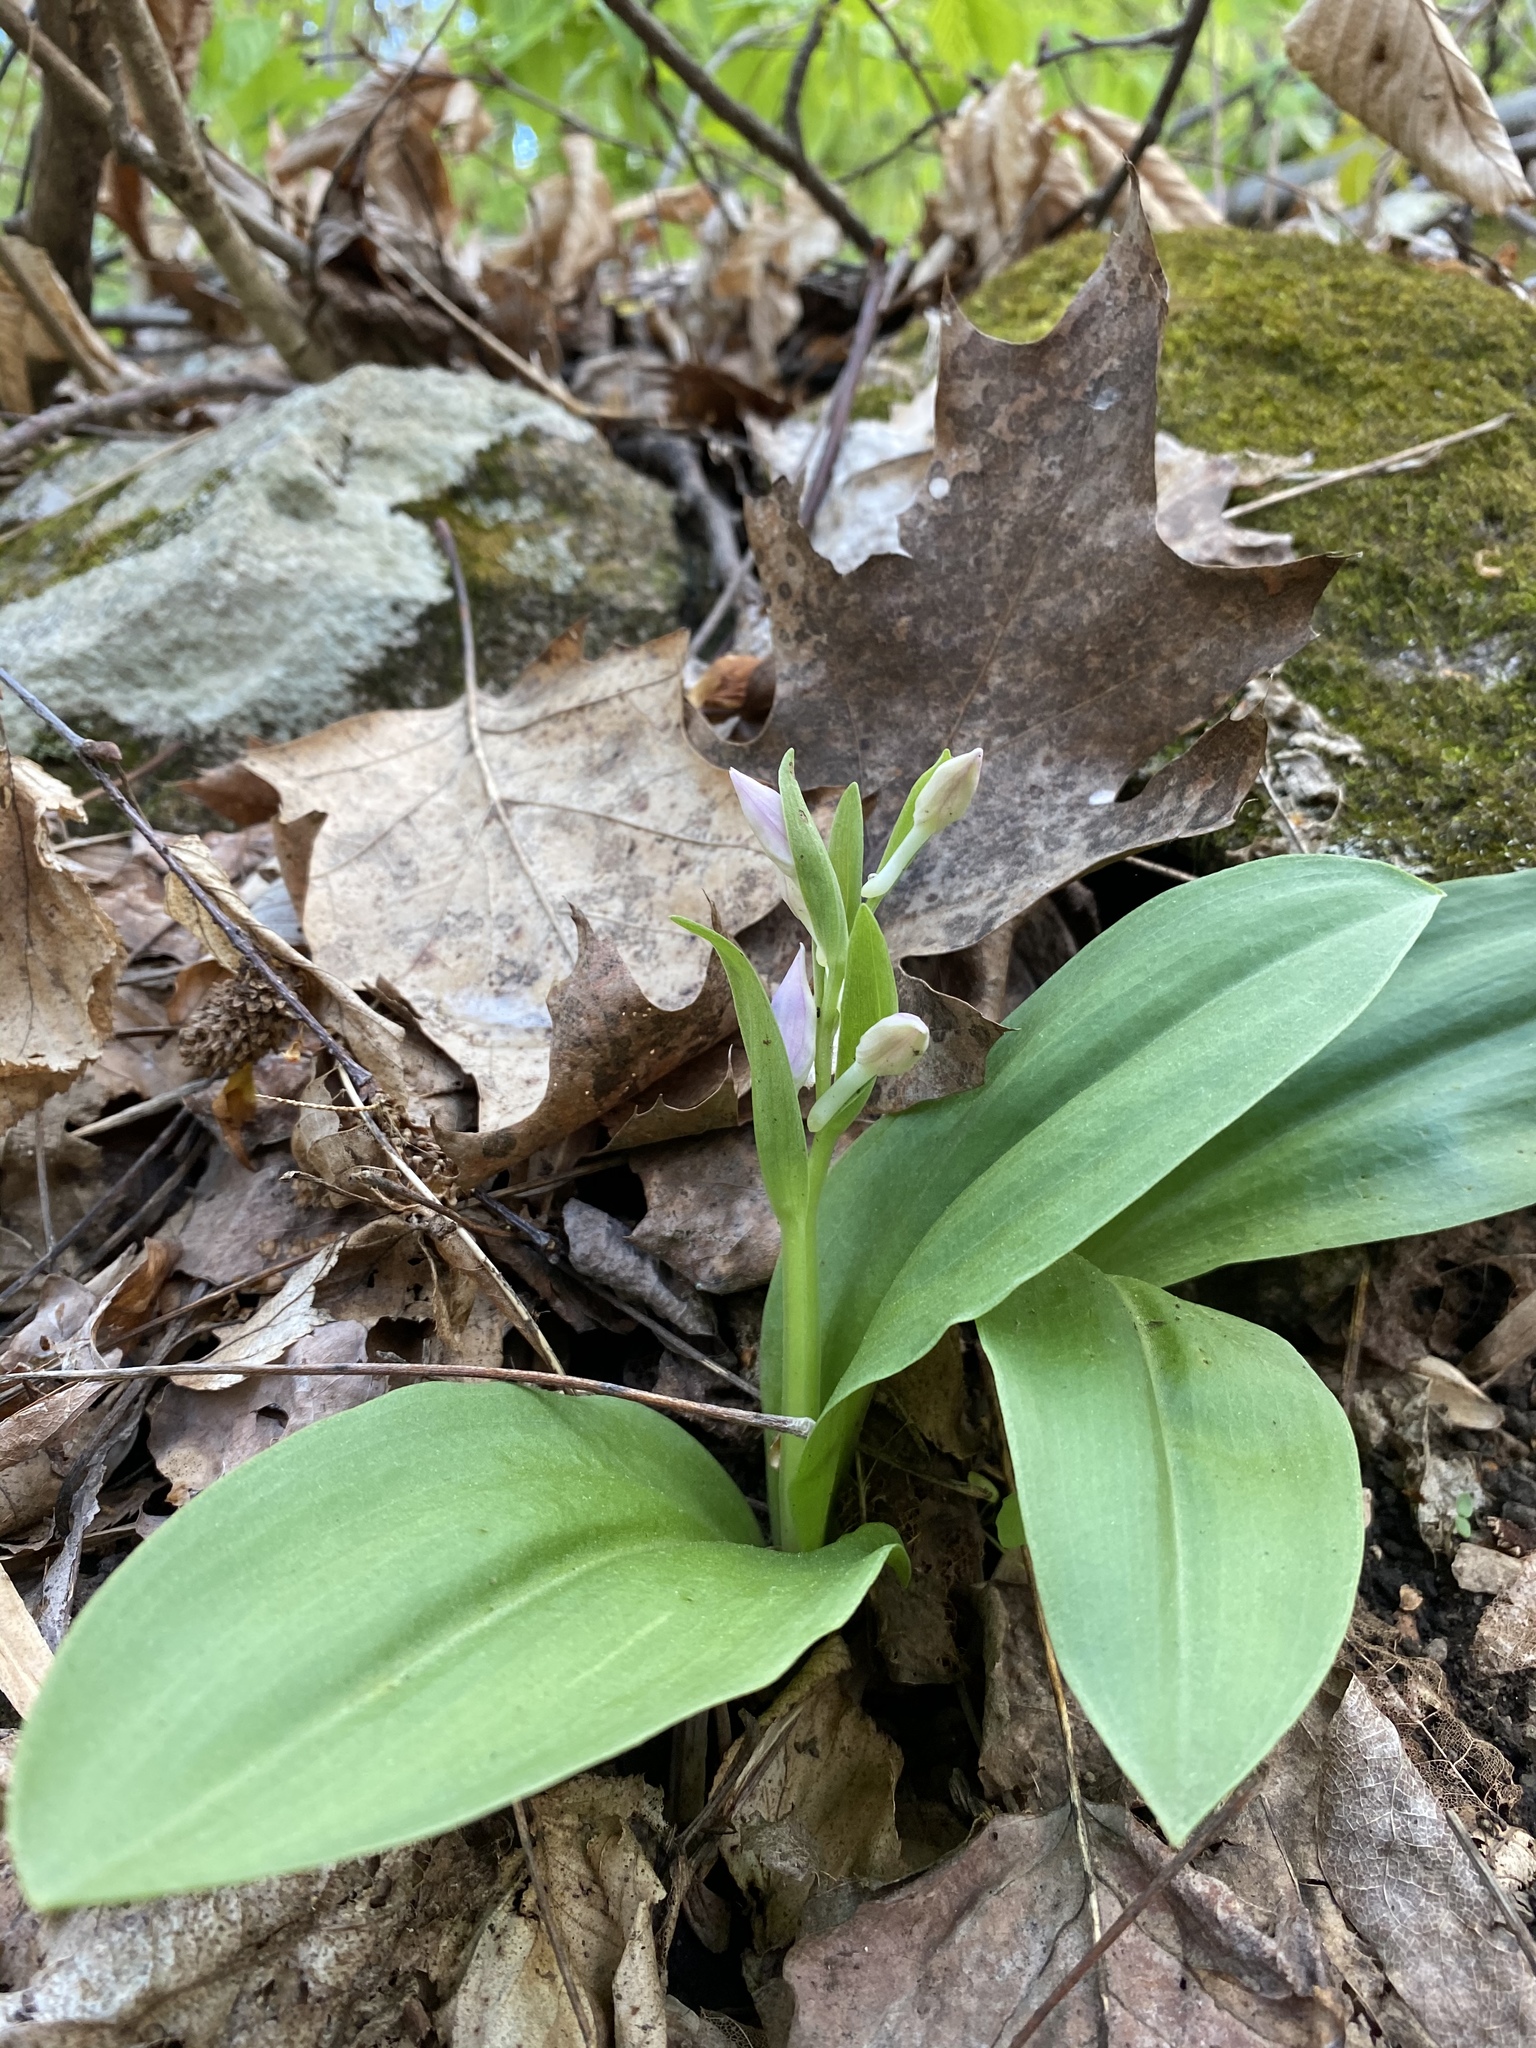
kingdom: Plantae
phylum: Tracheophyta
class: Liliopsida
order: Asparagales
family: Orchidaceae
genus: Galearis
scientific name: Galearis spectabilis
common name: Purple-hooded orchis
